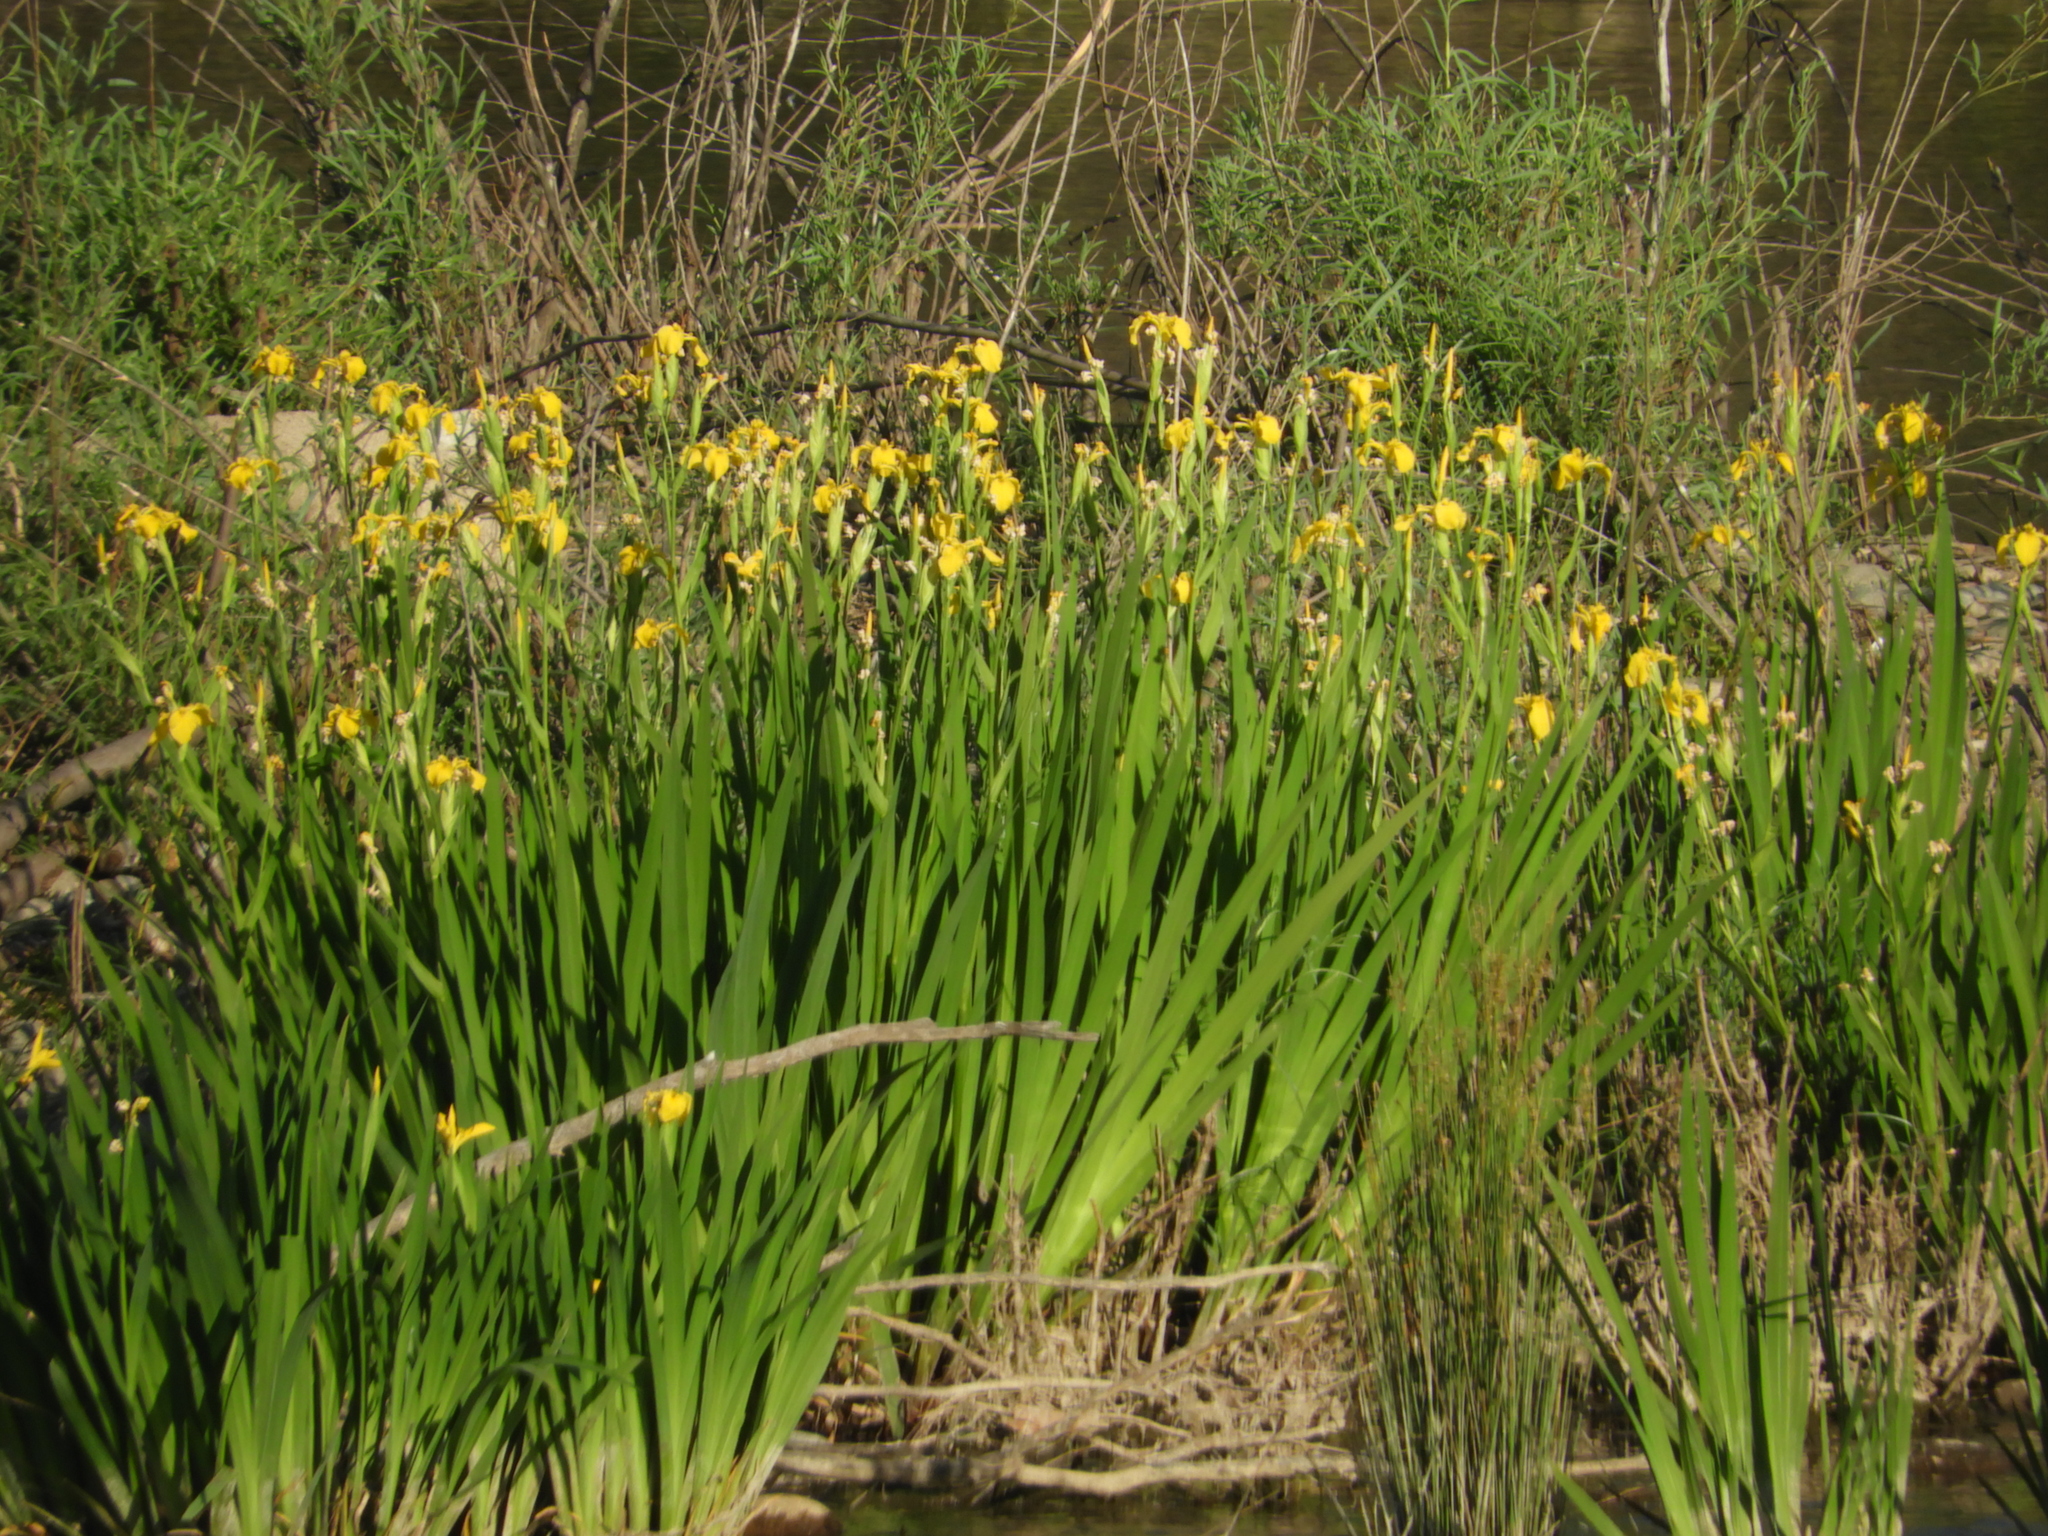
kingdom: Plantae
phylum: Tracheophyta
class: Liliopsida
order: Asparagales
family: Iridaceae
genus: Iris
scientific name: Iris pseudacorus
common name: Yellow flag
